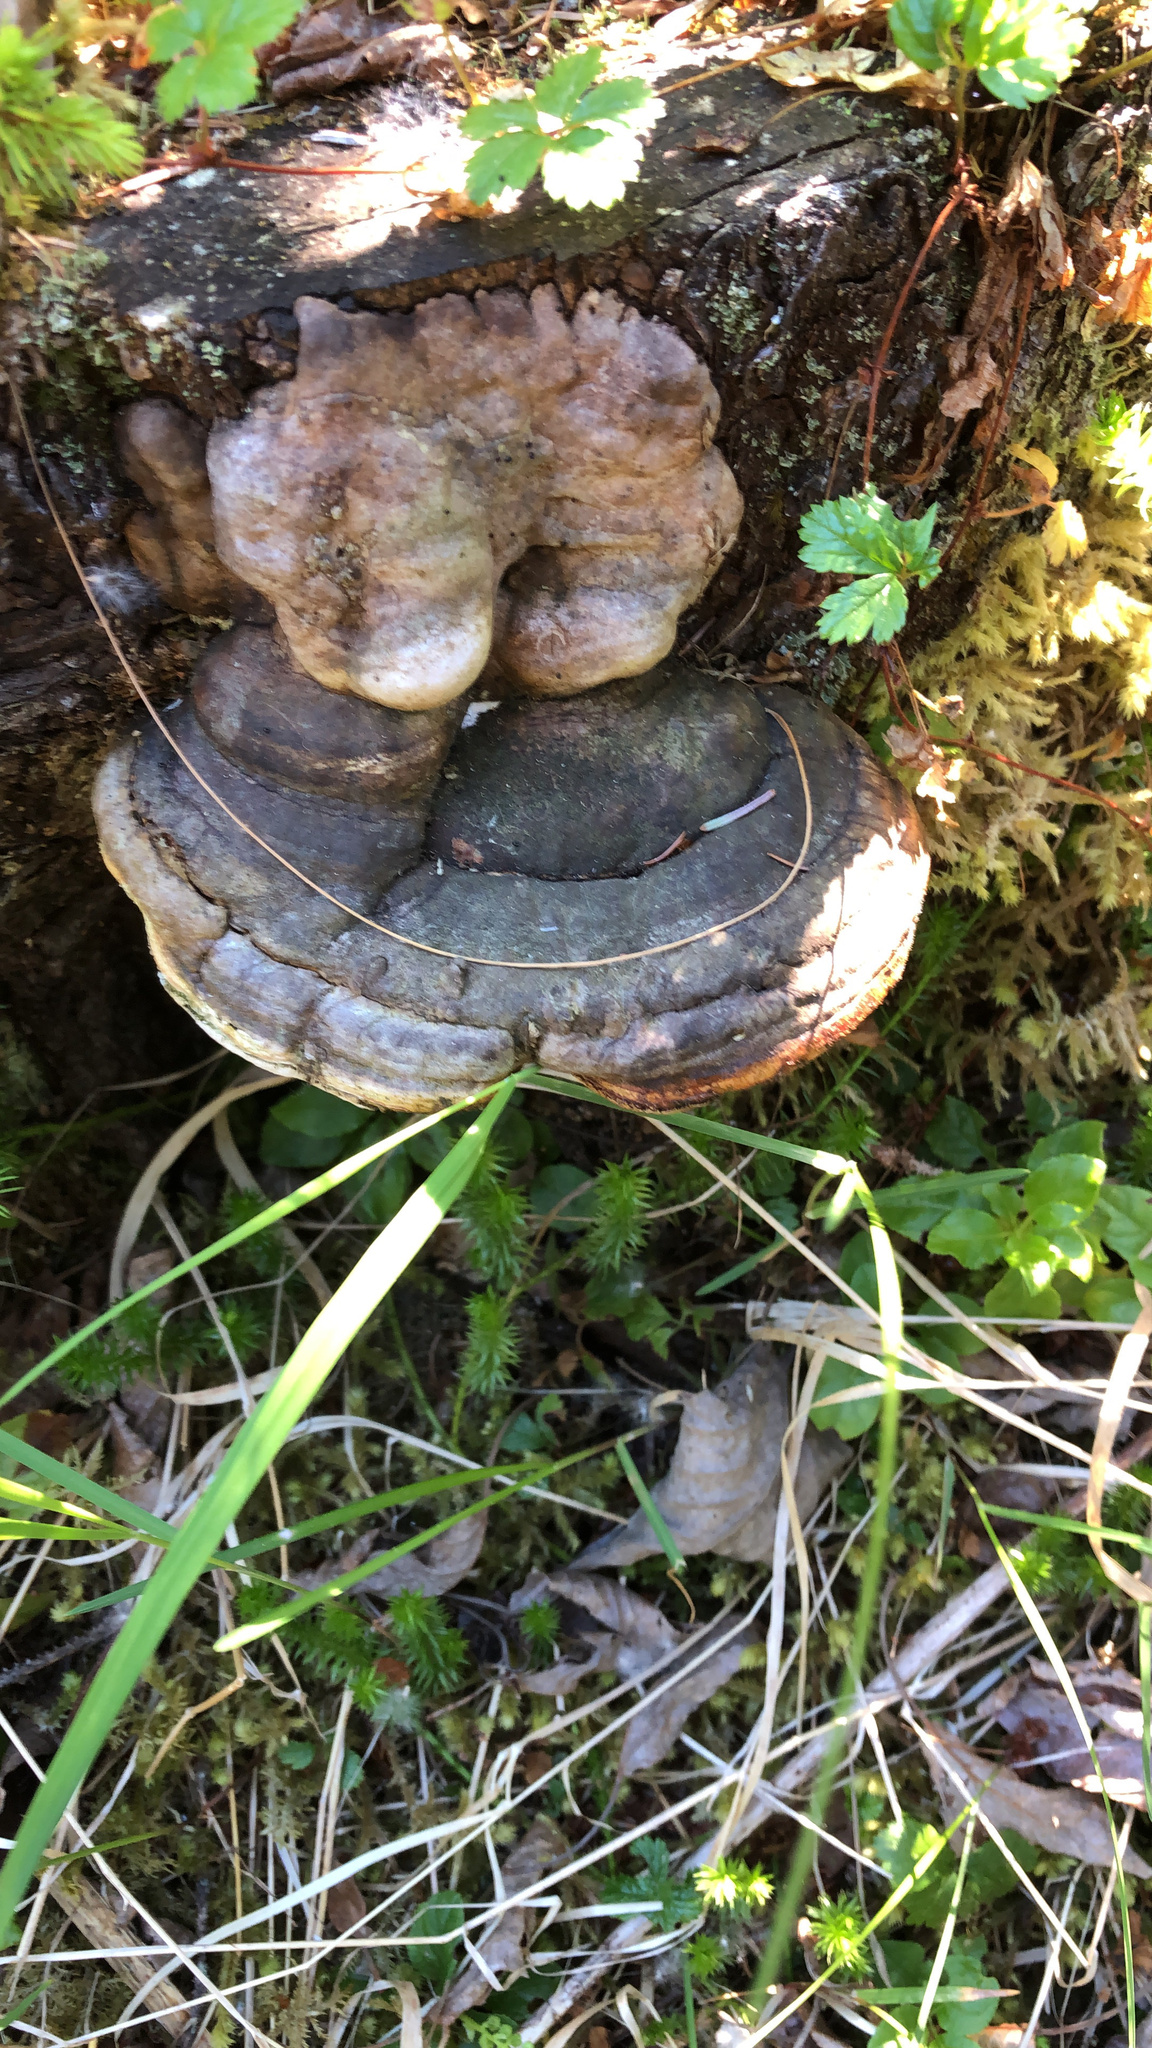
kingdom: Fungi
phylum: Basidiomycota
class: Agaricomycetes
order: Polyporales
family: Fomitopsidaceae
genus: Fomitopsis
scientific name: Fomitopsis ochracea
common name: American brown fomitopsis
